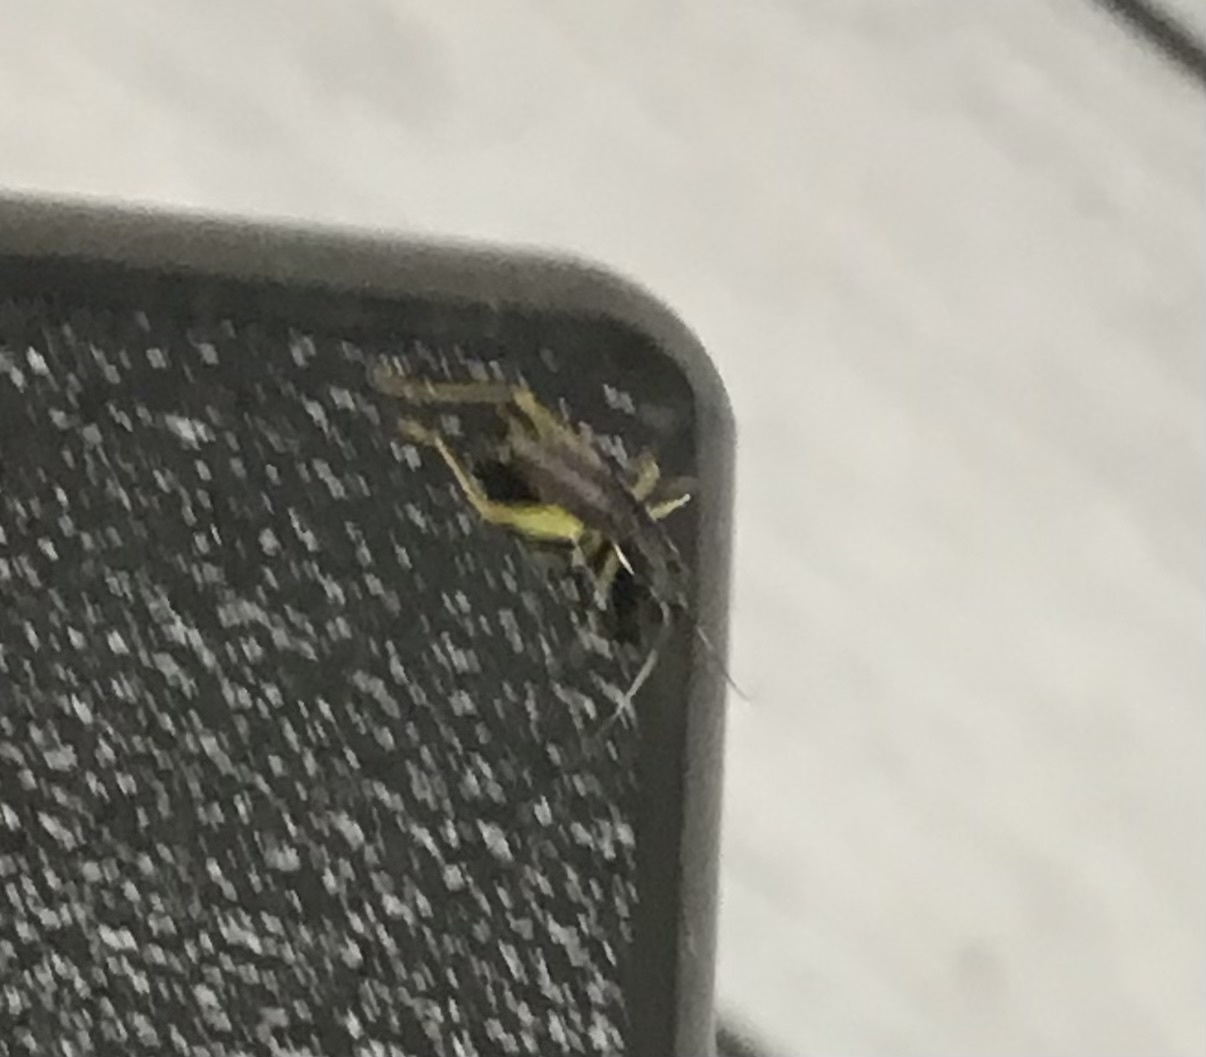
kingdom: Animalia
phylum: Arthropoda
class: Insecta
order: Orthoptera
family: Trigonidiidae
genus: Phyllopalpus
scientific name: Phyllopalpus pulchellus
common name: Handsome trig
